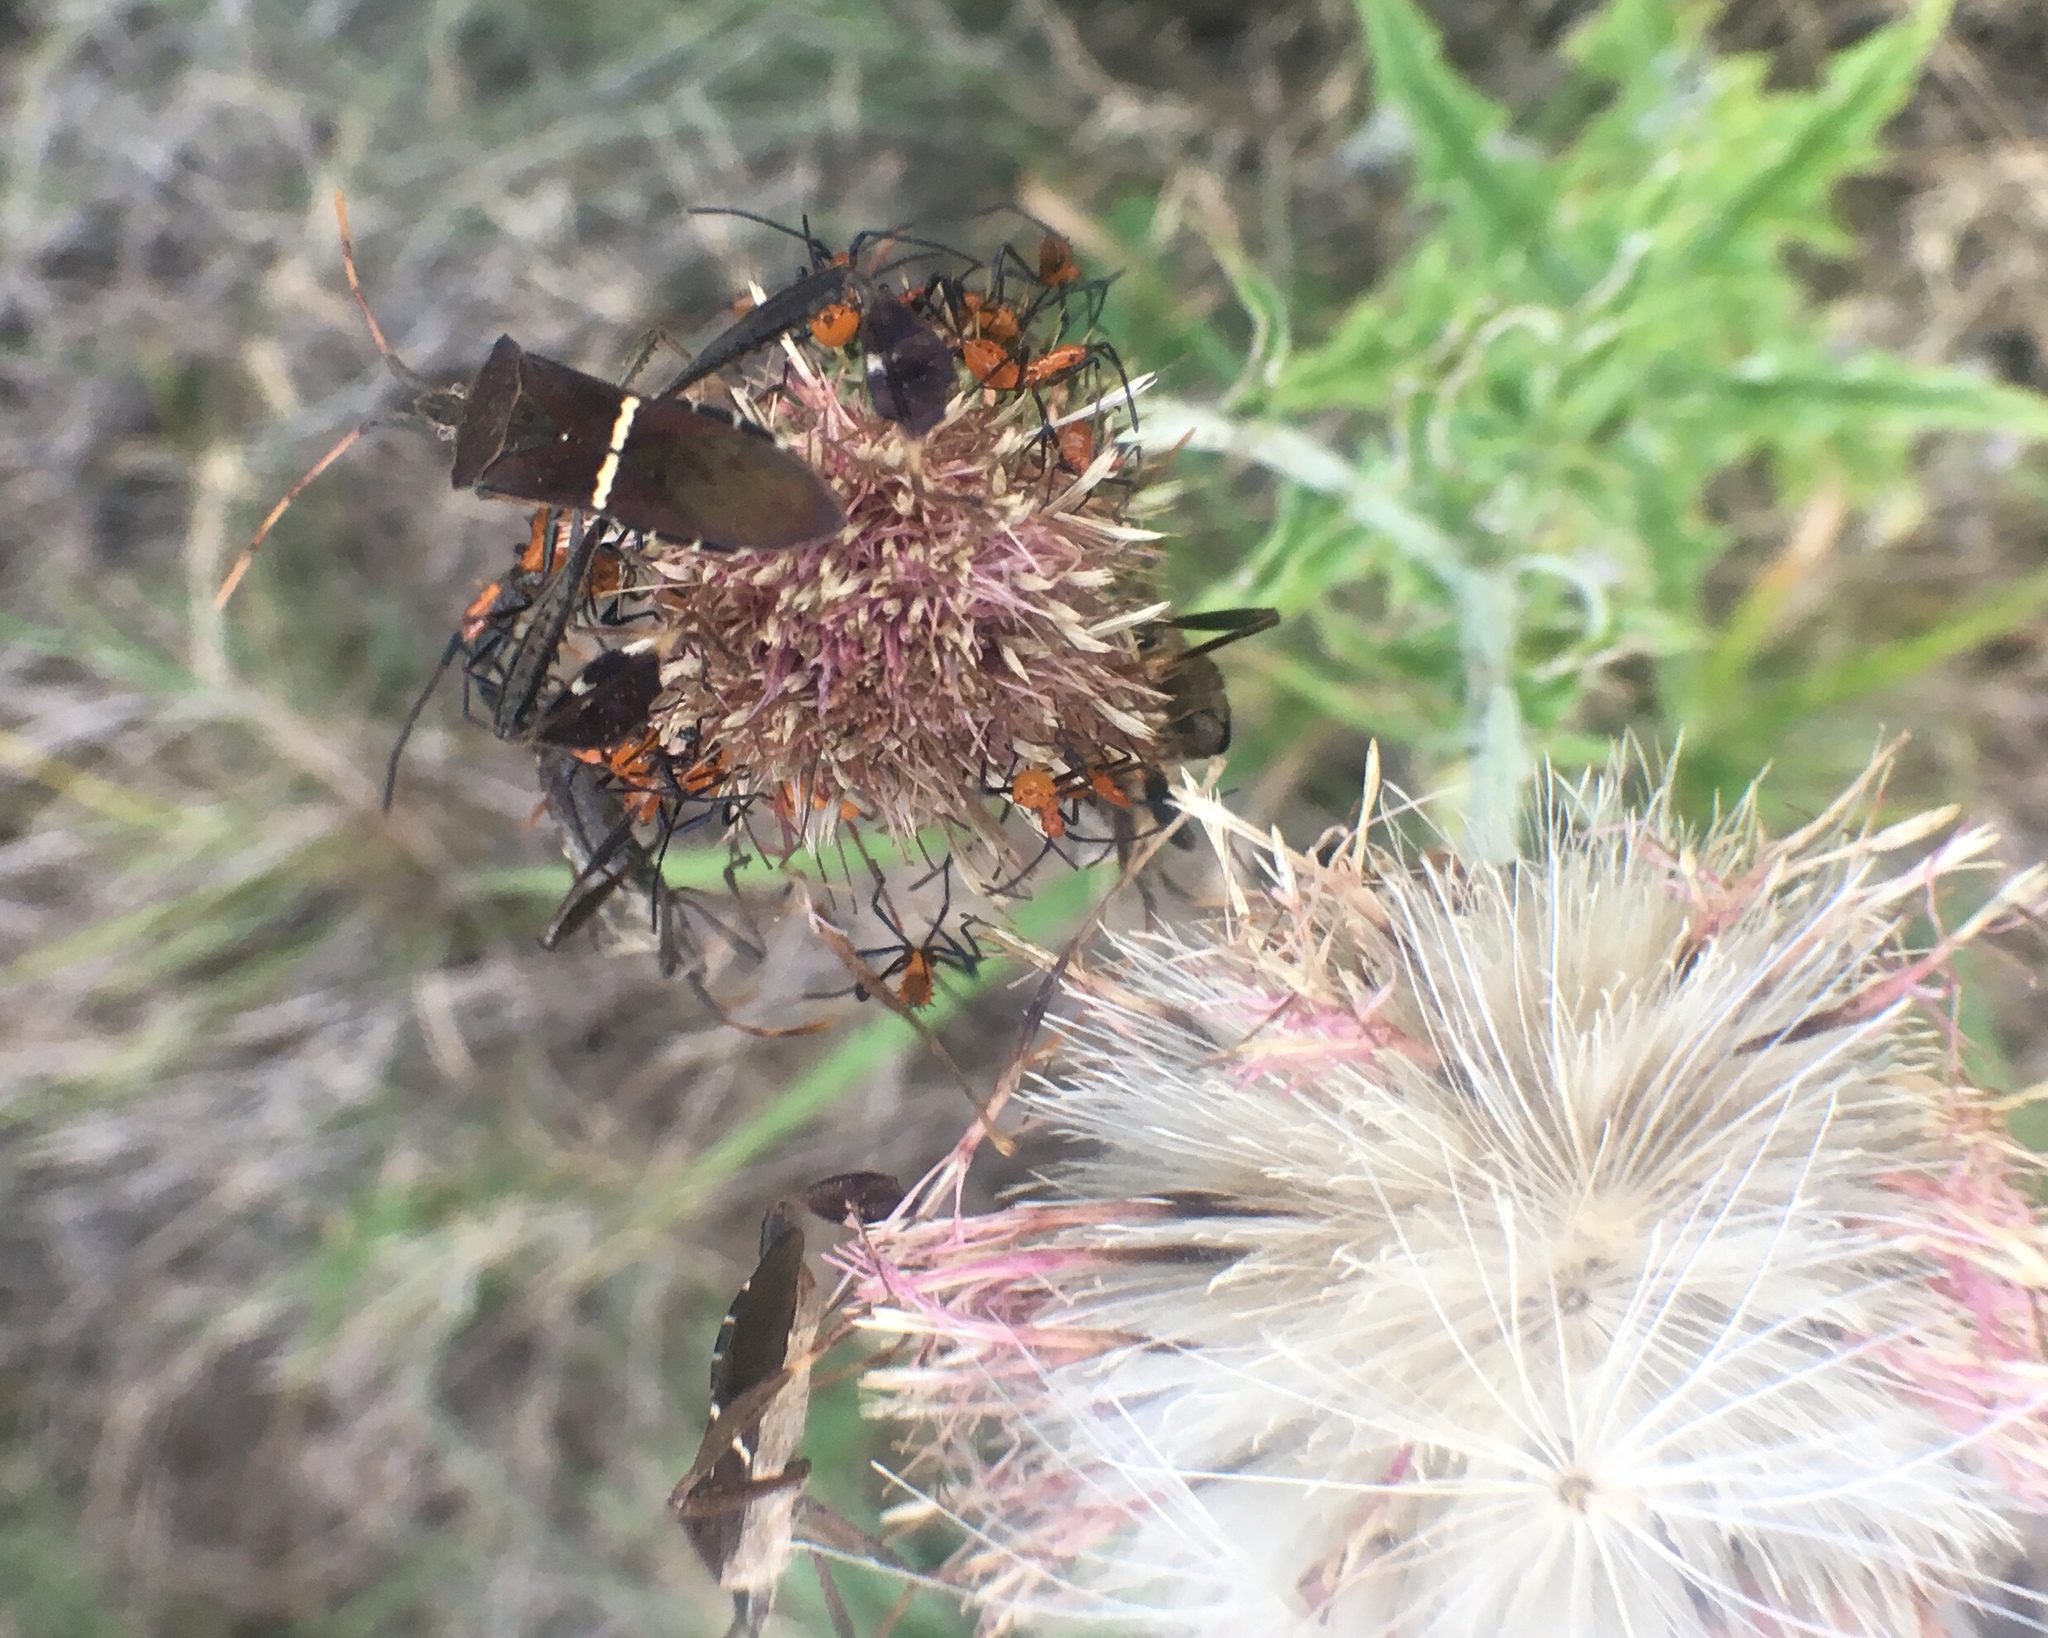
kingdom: Animalia
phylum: Arthropoda
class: Insecta
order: Hemiptera
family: Coreidae
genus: Leptoglossus
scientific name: Leptoglossus phyllopus
